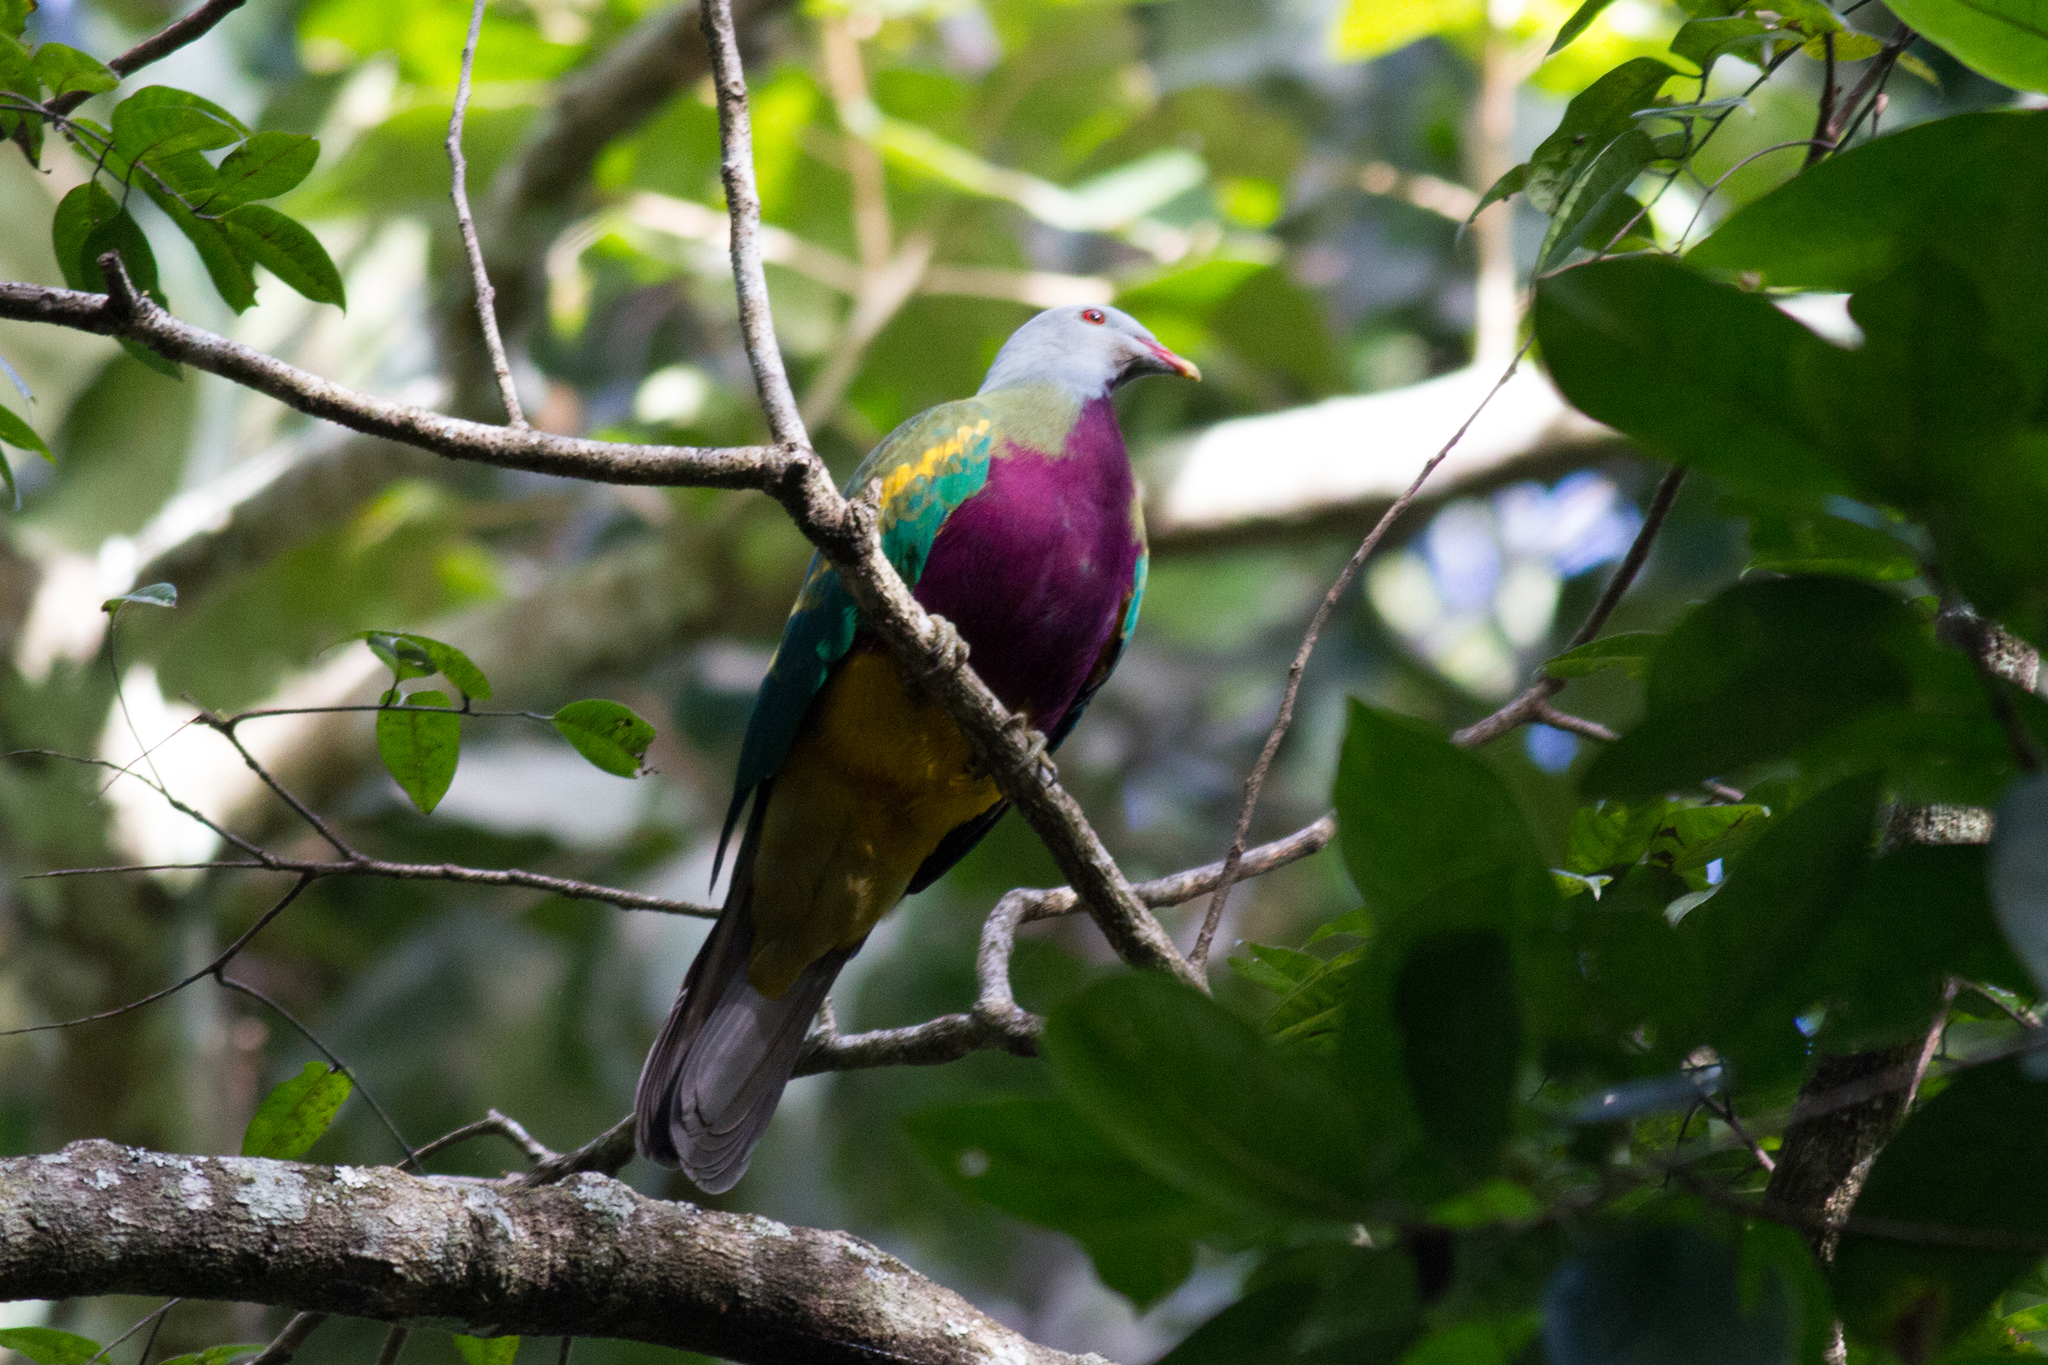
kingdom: Animalia
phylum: Chordata
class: Aves
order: Columbiformes
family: Columbidae
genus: Ptilinopus
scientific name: Ptilinopus magnificus
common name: Wompoo fruit dove
